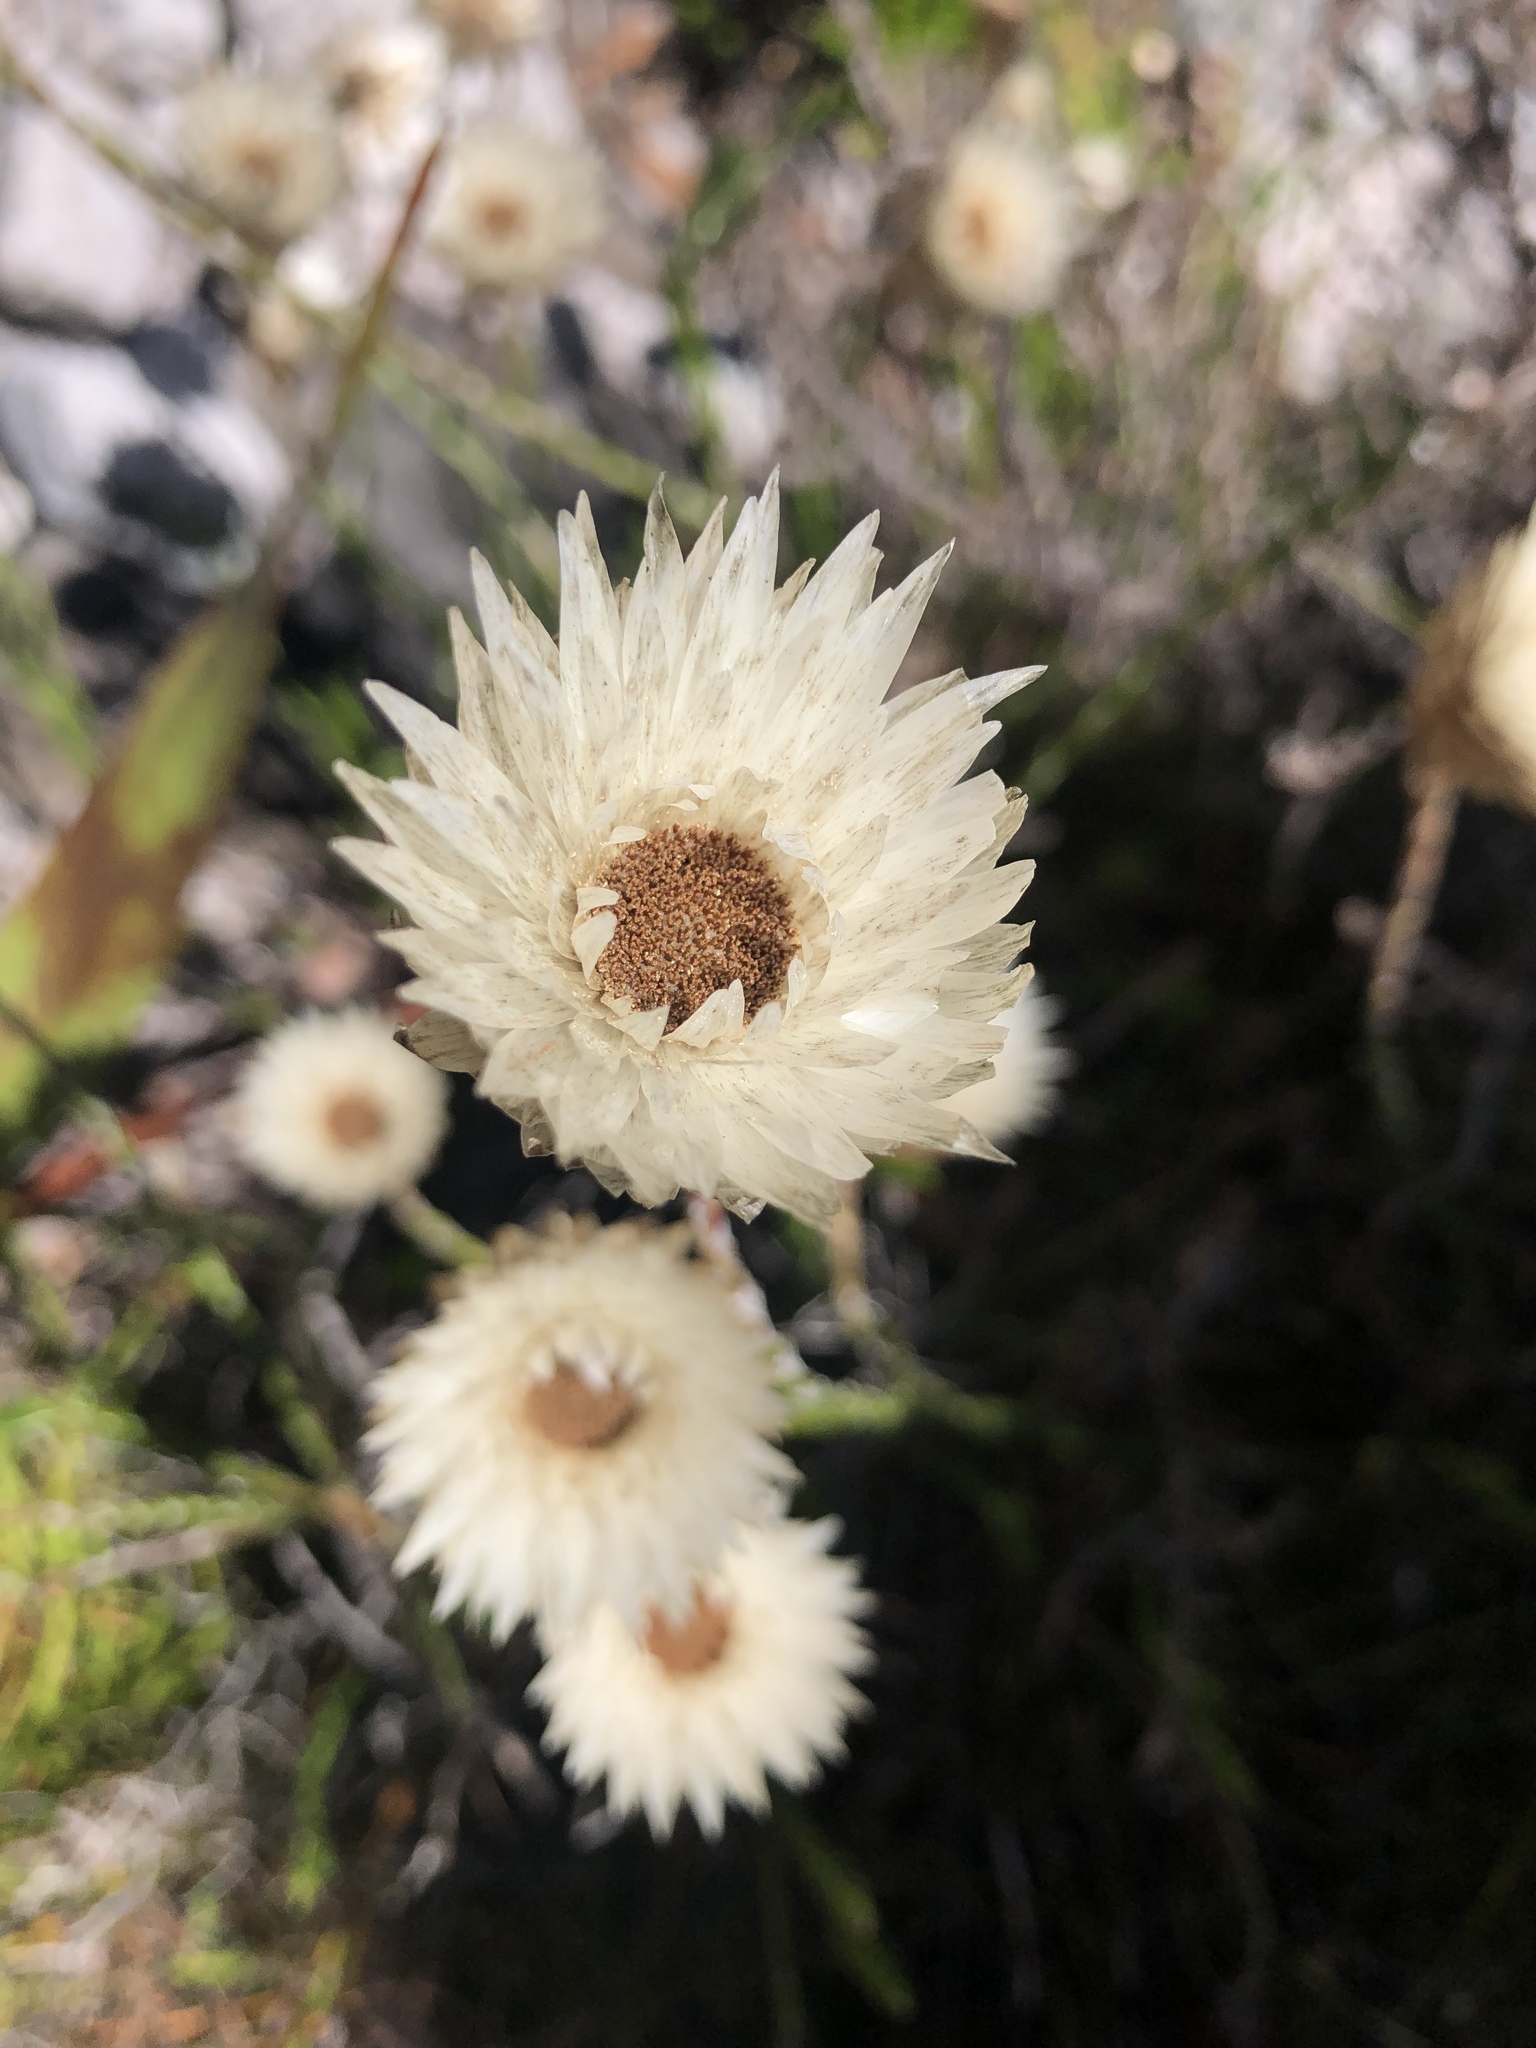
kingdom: Plantae
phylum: Tracheophyta
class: Magnoliopsida
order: Asterales
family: Asteraceae
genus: Edmondia
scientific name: Edmondia sesamoides
